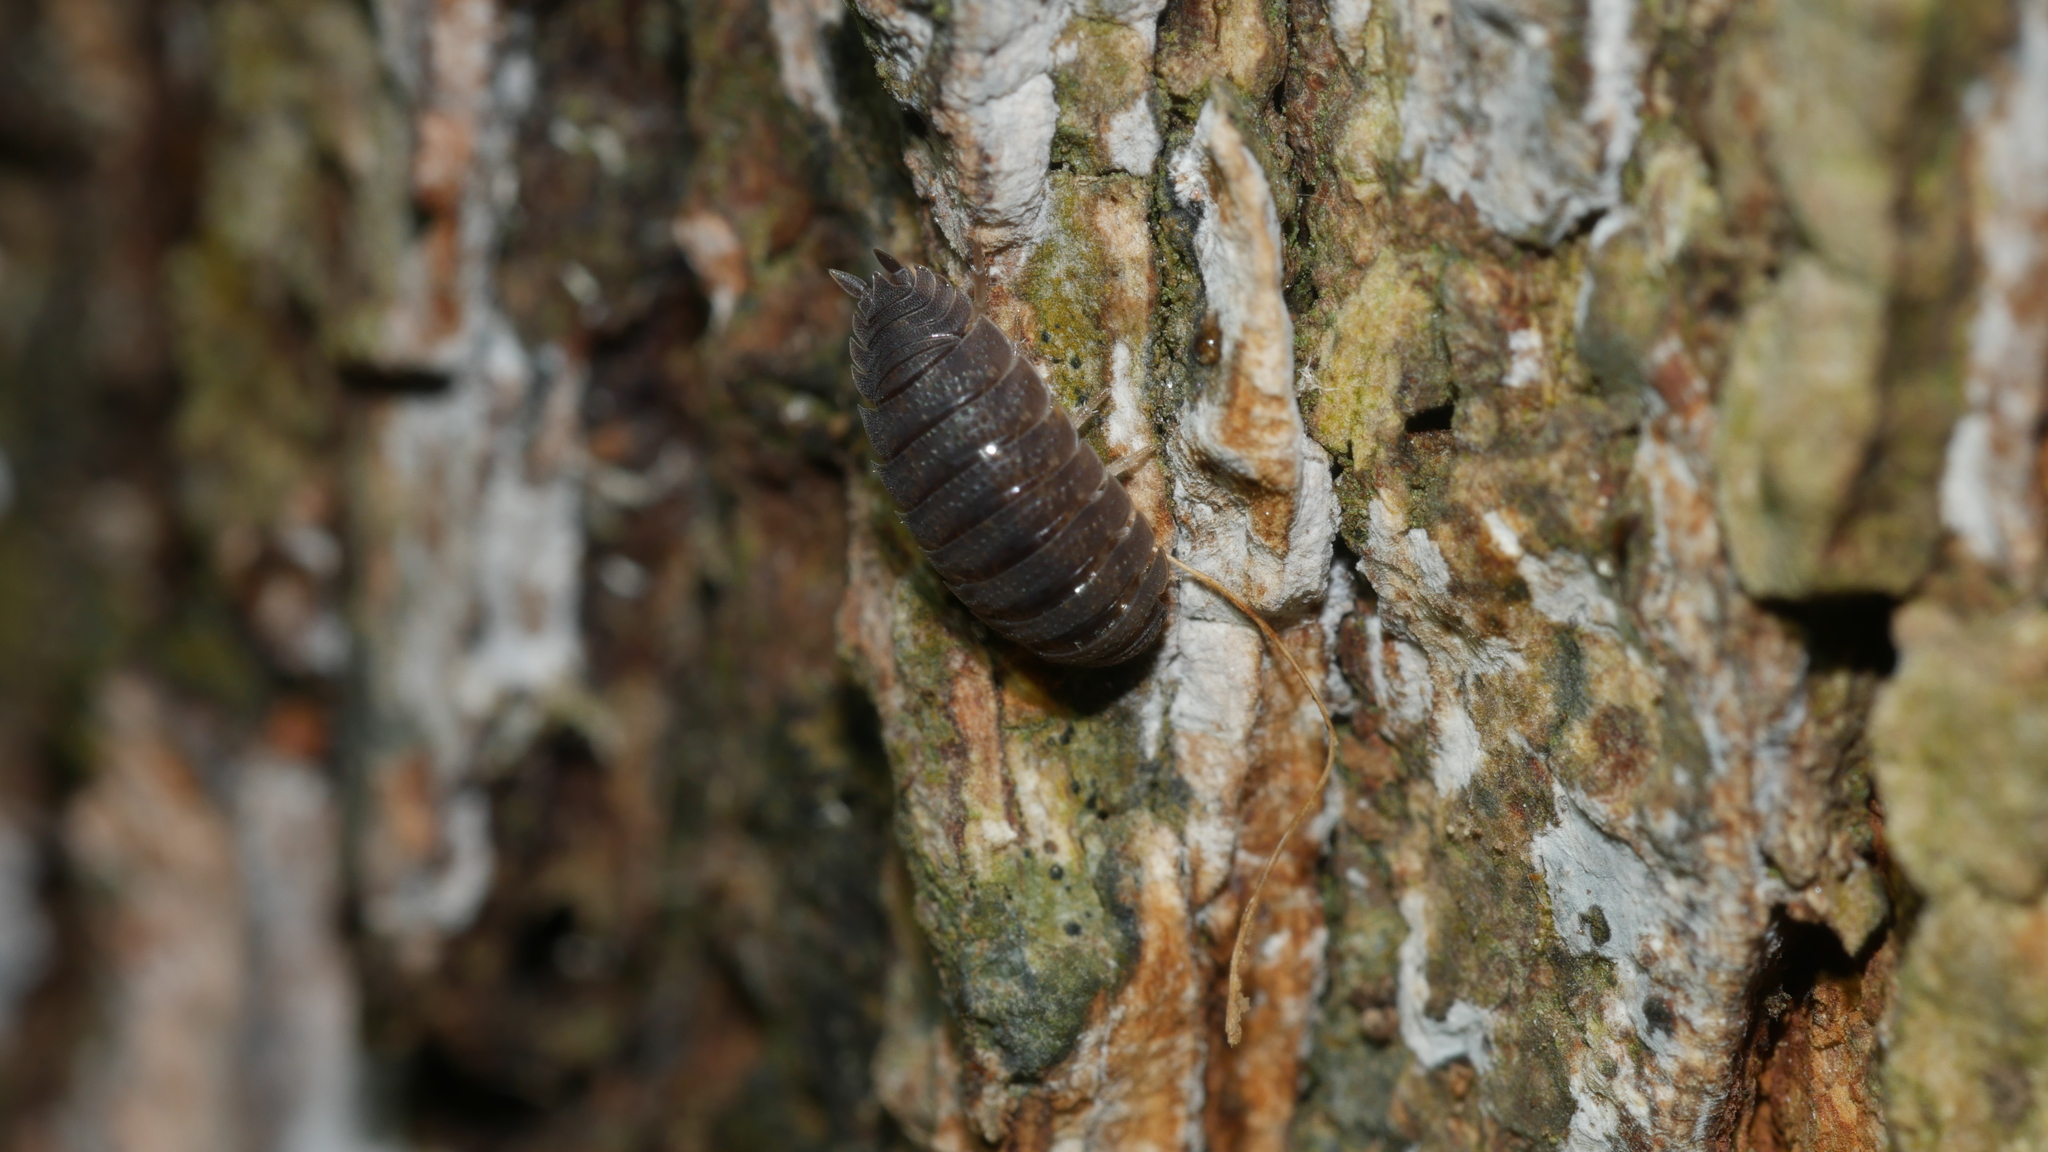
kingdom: Animalia
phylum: Arthropoda
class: Malacostraca
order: Isopoda
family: Porcellionidae
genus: Porcellio
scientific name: Porcellio scaber
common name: Common rough woodlouse
